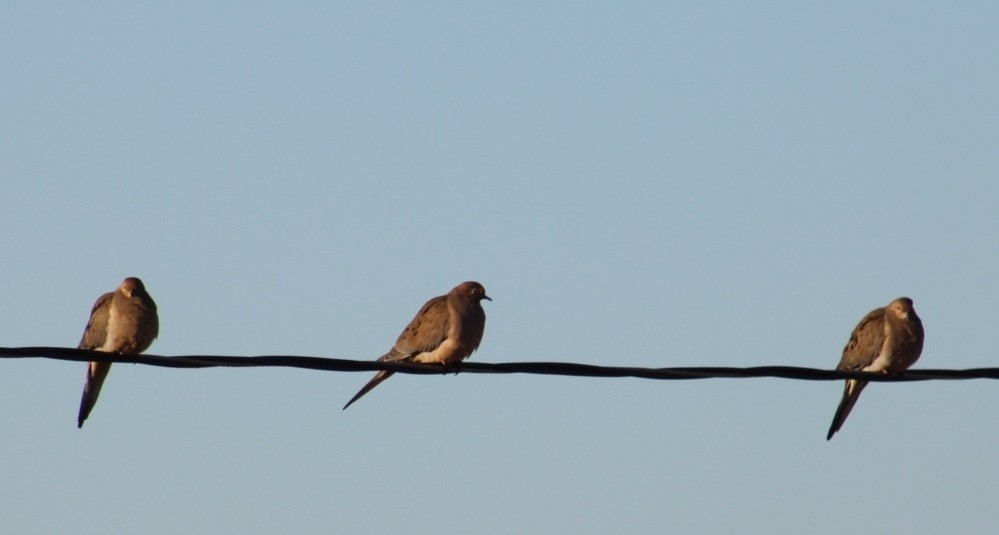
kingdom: Animalia
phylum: Chordata
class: Aves
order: Columbiformes
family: Columbidae
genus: Zenaida
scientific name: Zenaida macroura
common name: Mourning dove
